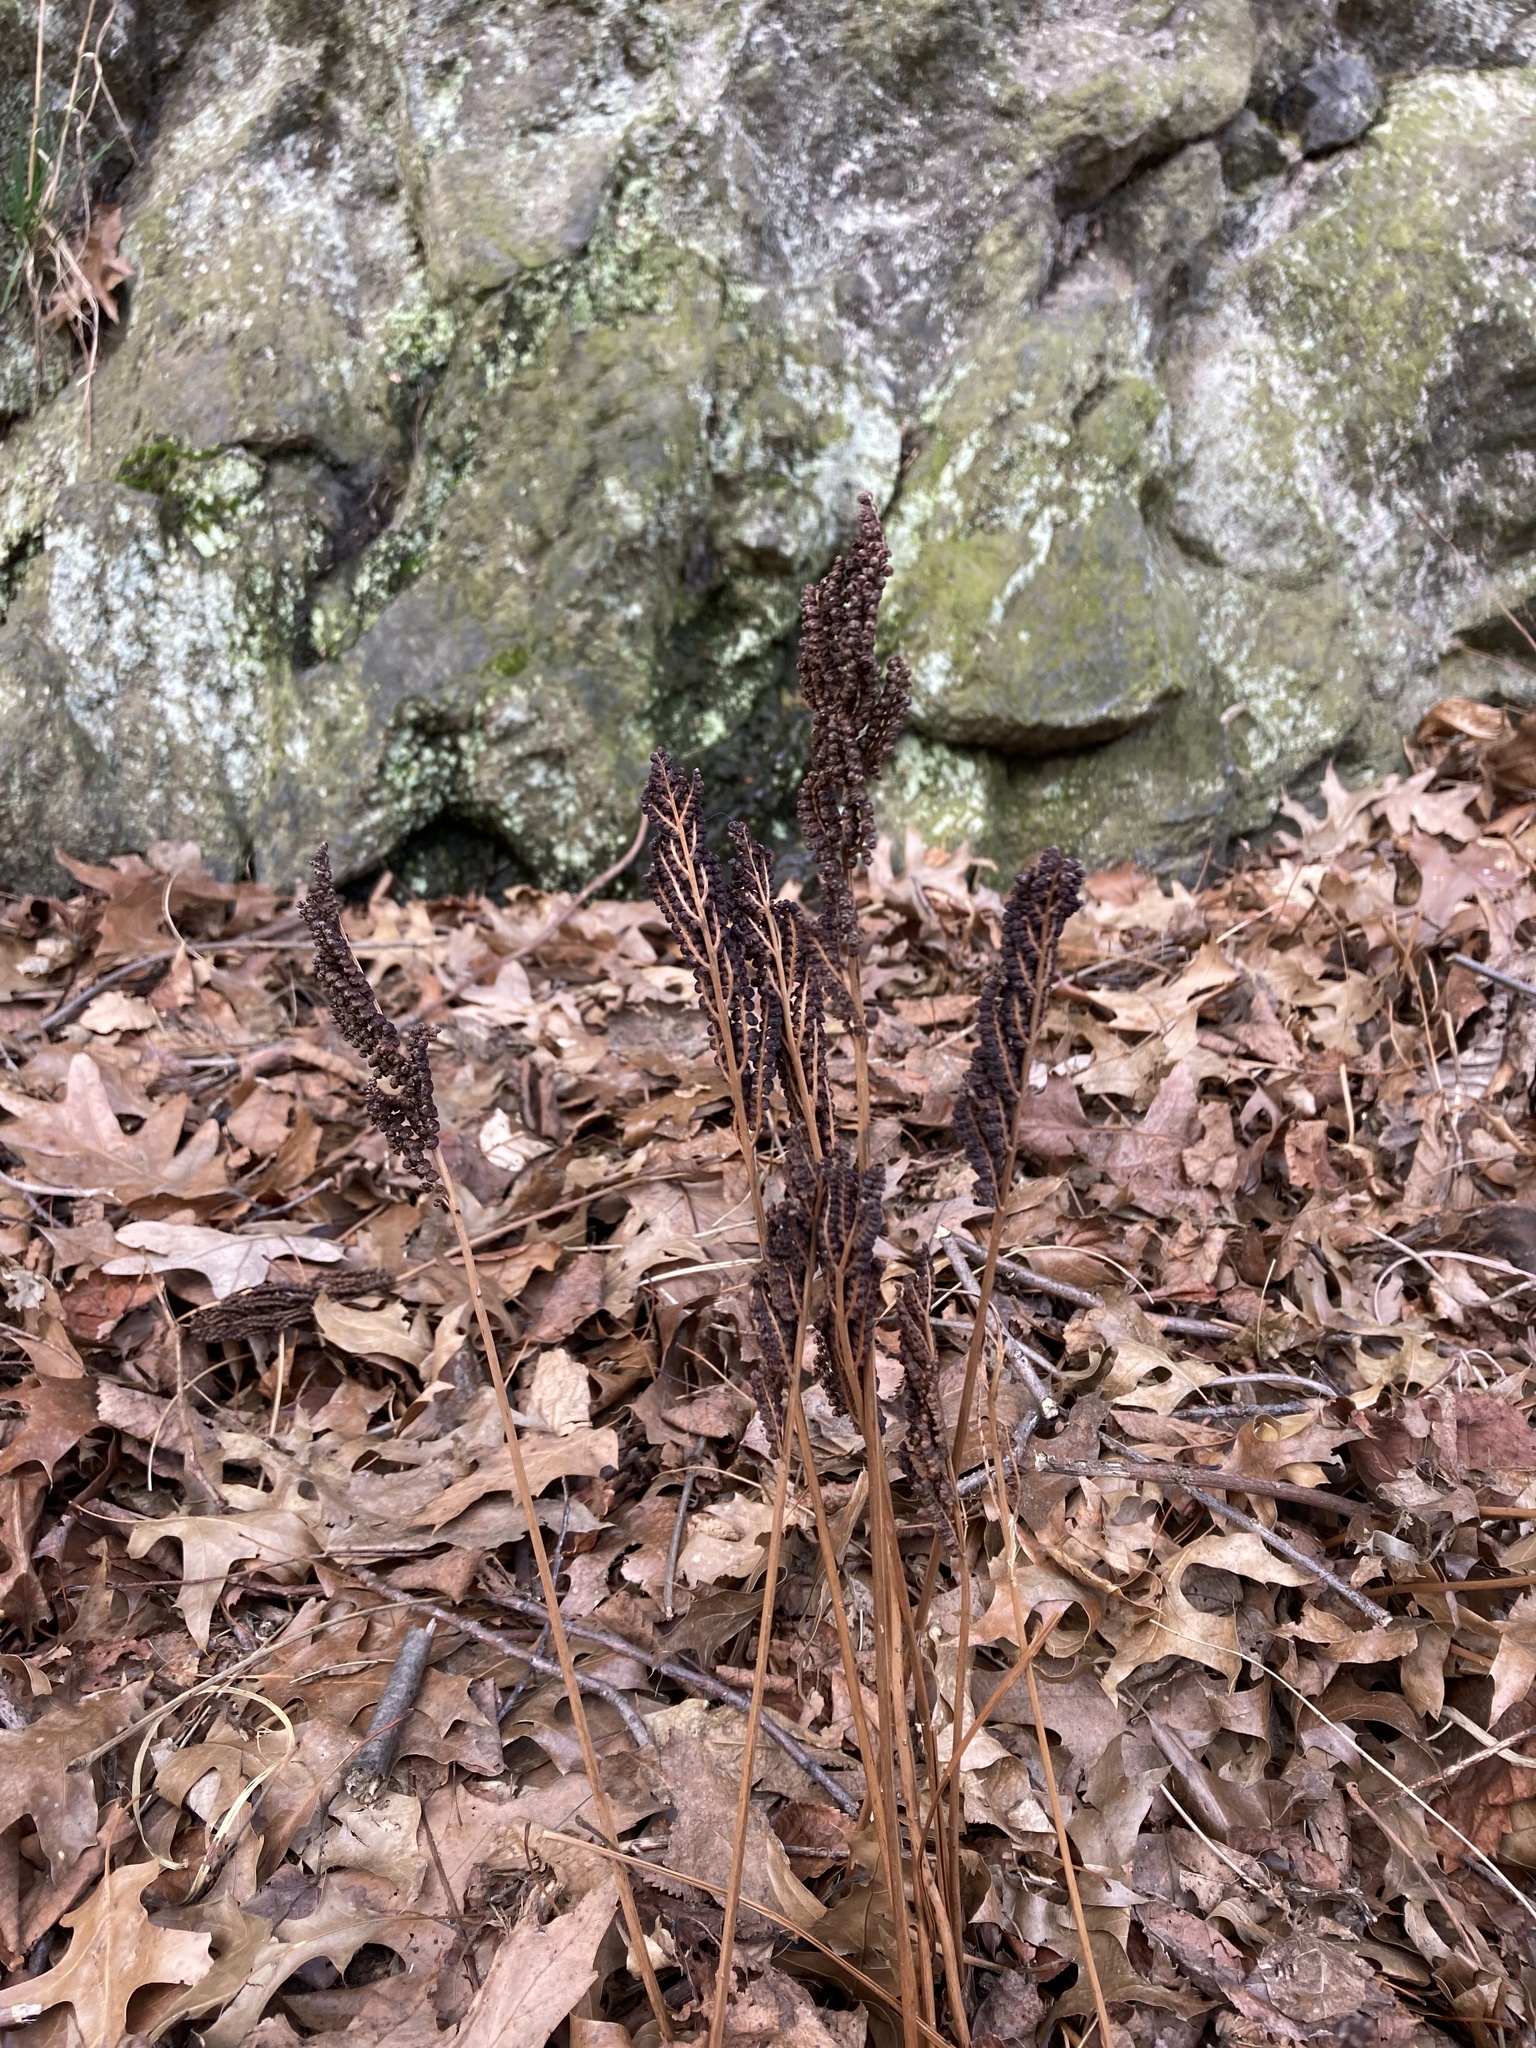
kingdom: Plantae
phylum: Tracheophyta
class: Polypodiopsida
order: Polypodiales
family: Onocleaceae
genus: Onoclea
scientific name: Onoclea sensibilis
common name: Sensitive fern
